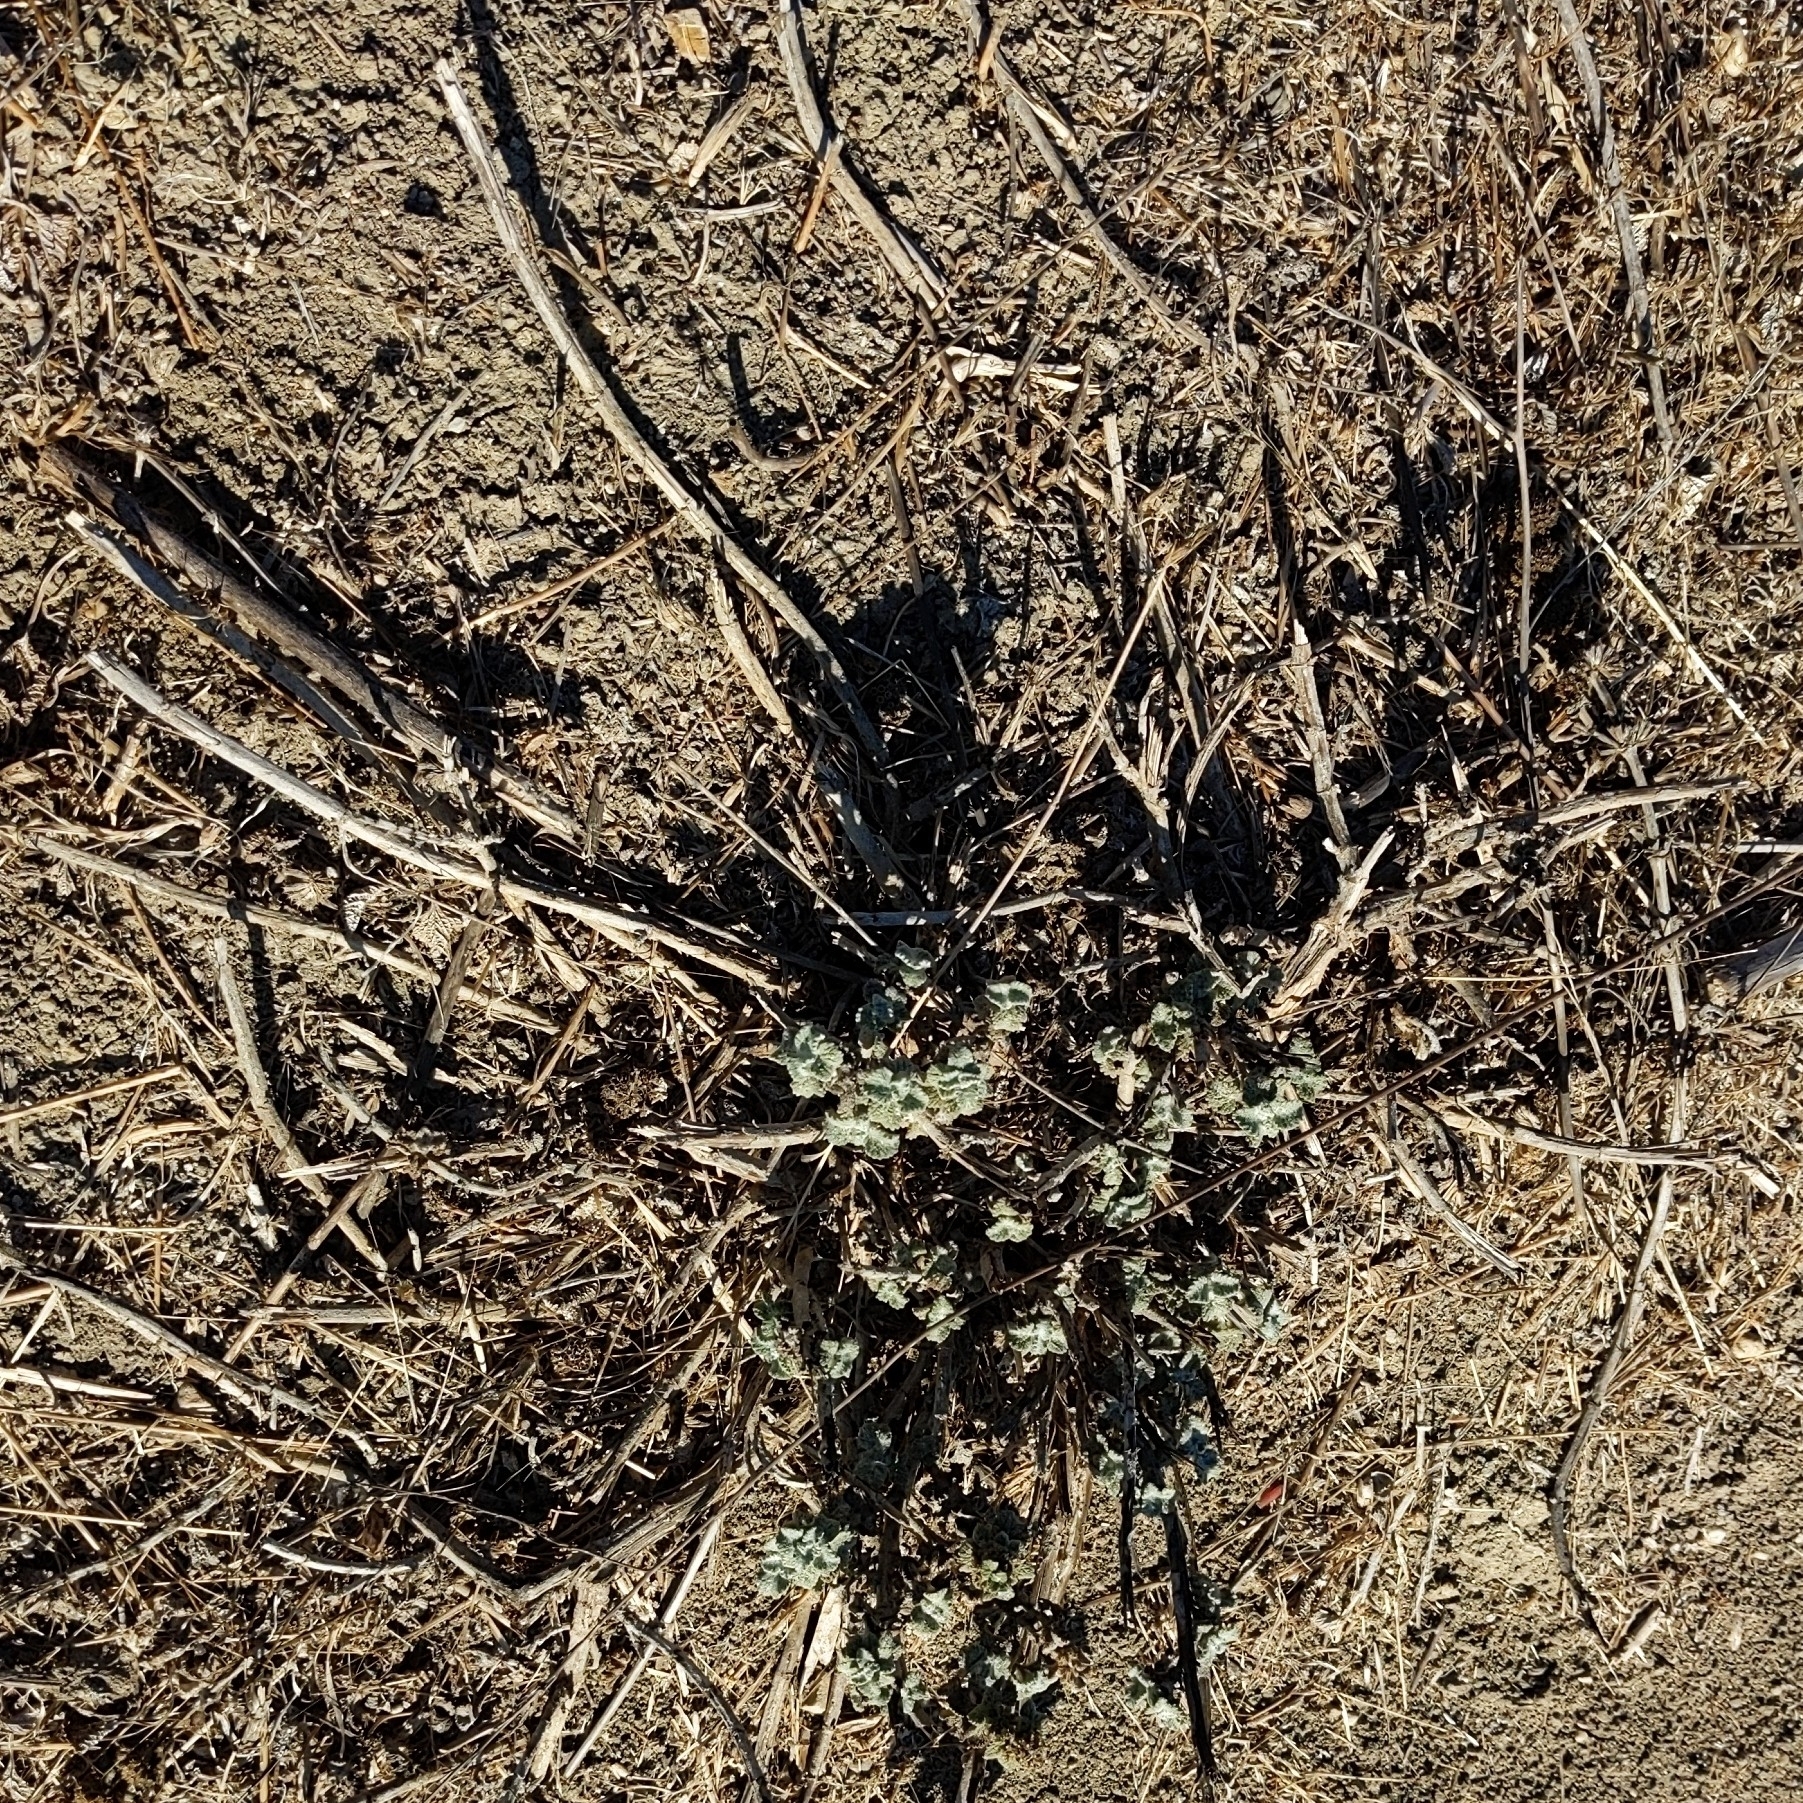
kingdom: Plantae
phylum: Tracheophyta
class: Magnoliopsida
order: Lamiales
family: Lamiaceae
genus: Marrubium
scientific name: Marrubium vulgare
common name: Horehound
